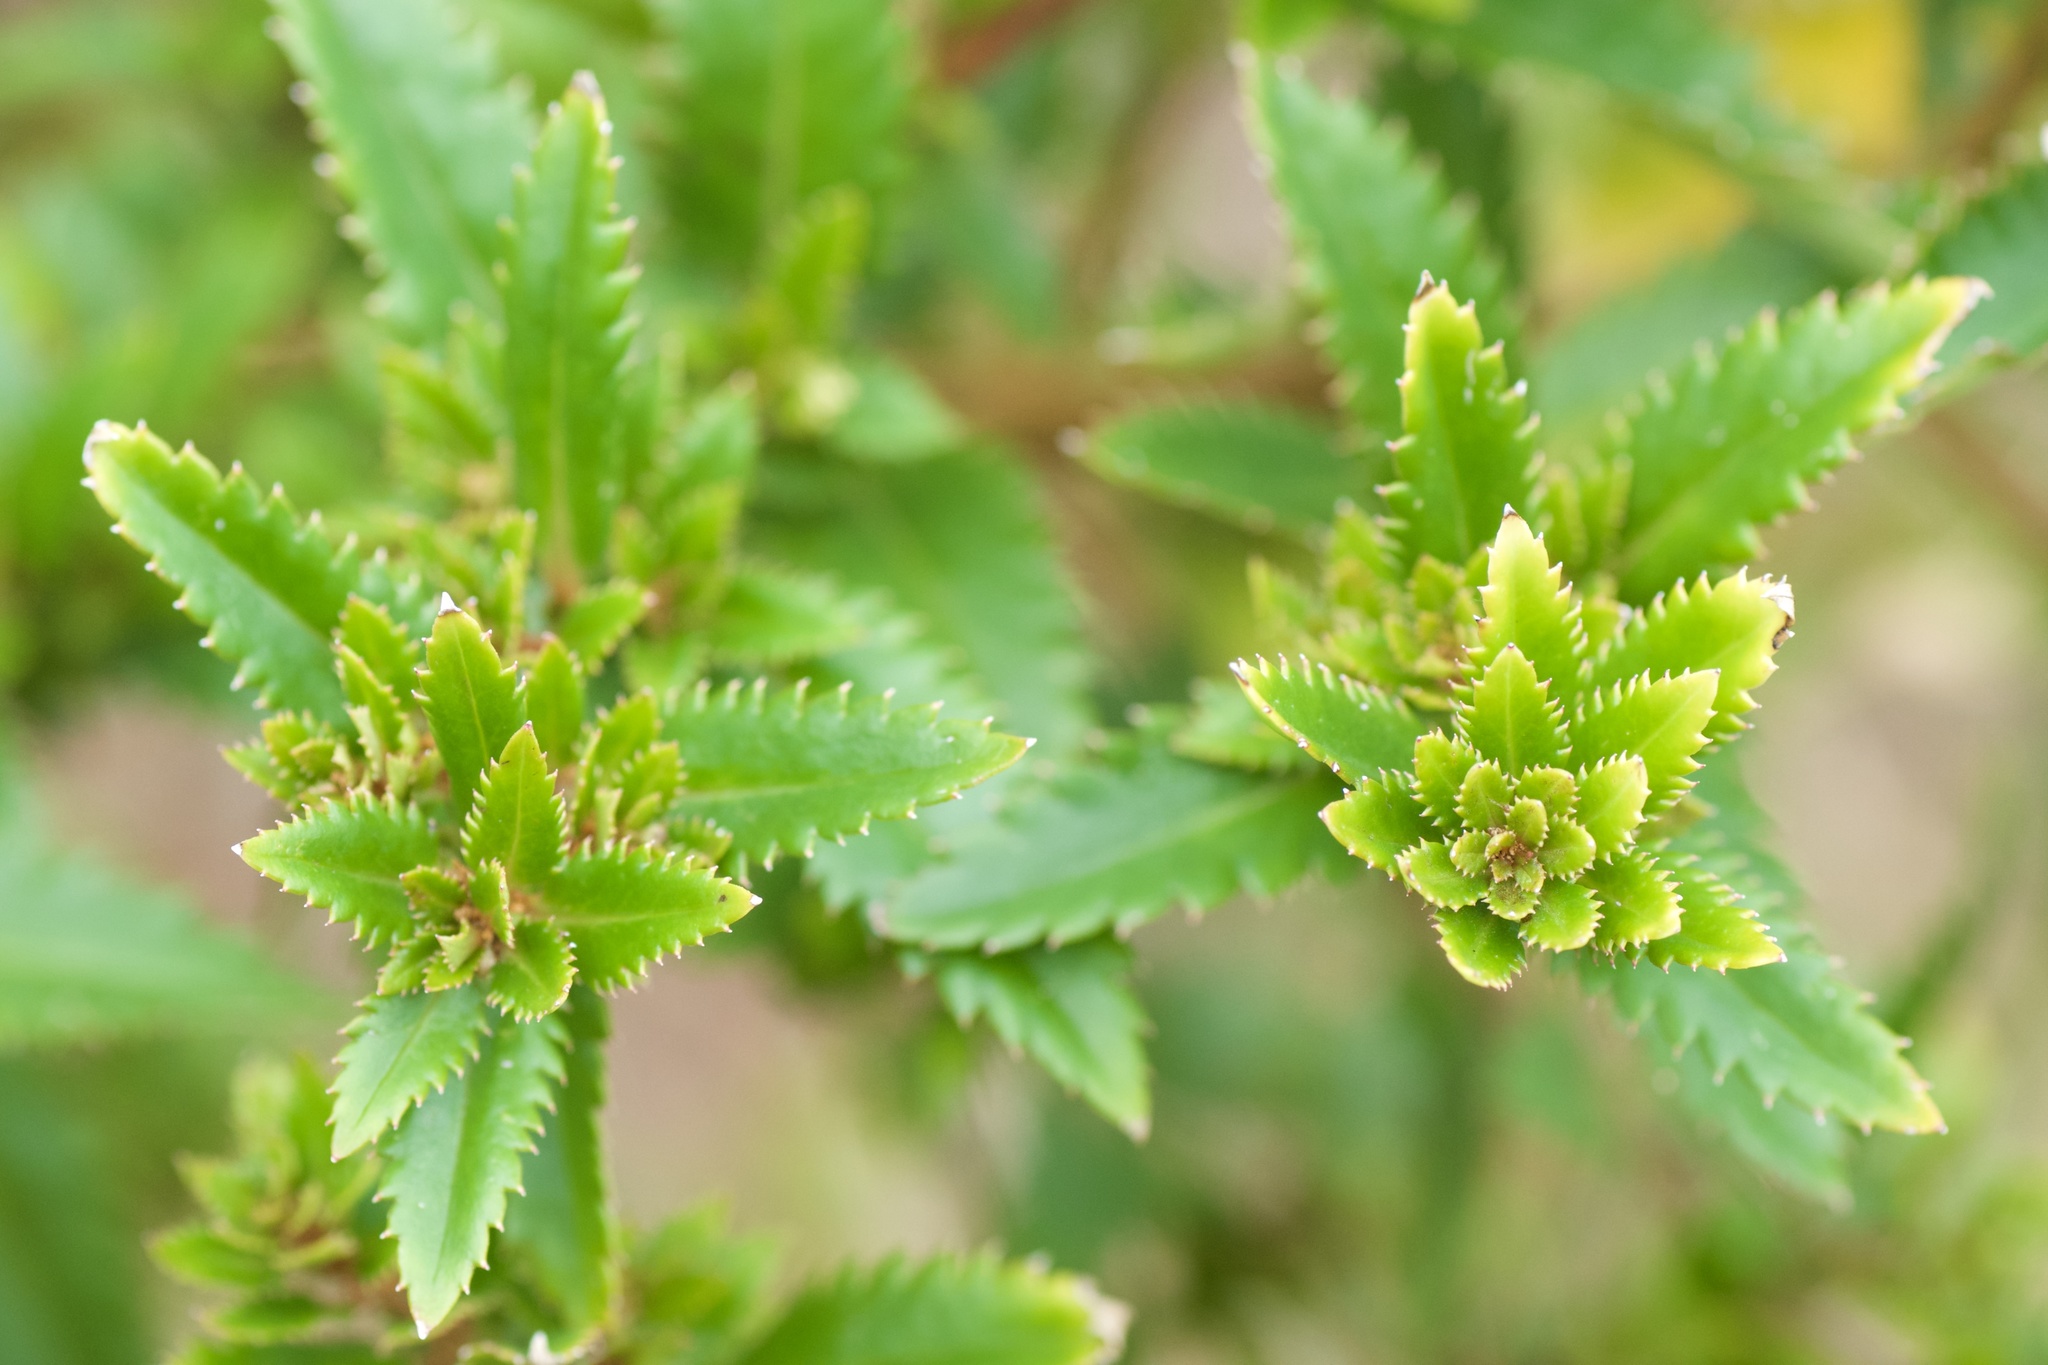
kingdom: Plantae
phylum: Tracheophyta
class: Magnoliopsida
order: Saxifragales
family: Haloragaceae
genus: Haloragis
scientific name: Haloragis erecta
